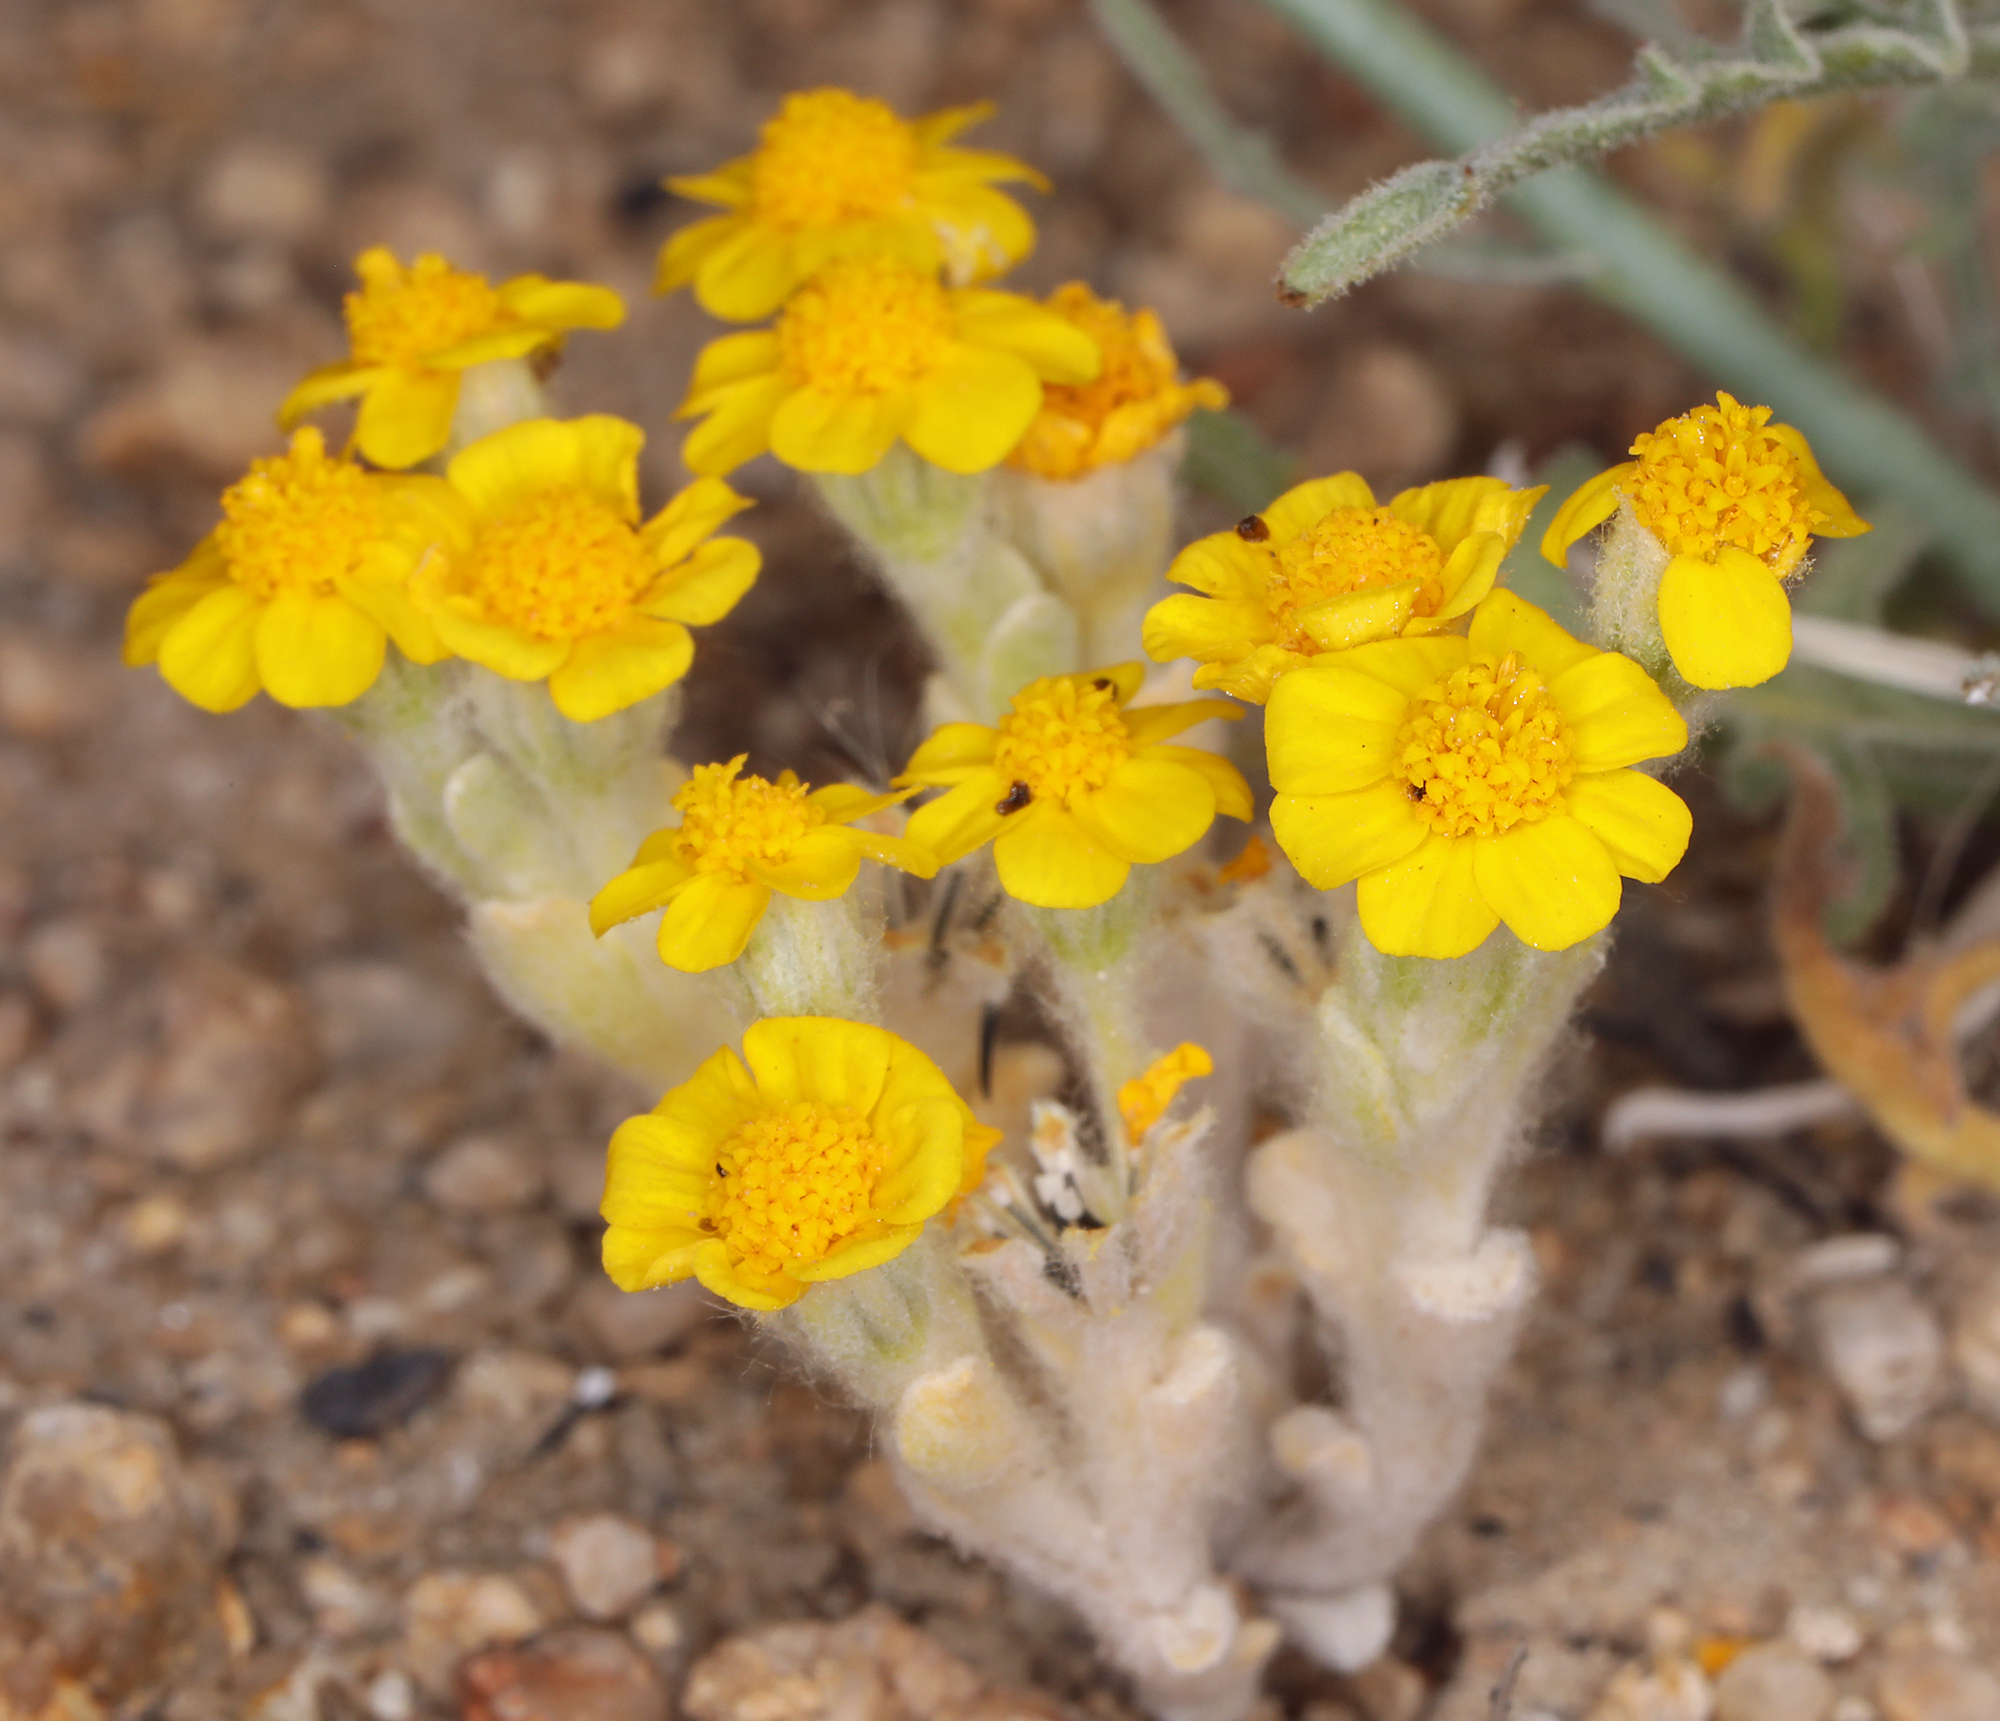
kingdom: Plantae
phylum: Tracheophyta
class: Magnoliopsida
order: Asterales
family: Asteraceae
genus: Eriophyllum
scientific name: Eriophyllum wallacei
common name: Wallace's woolly daisy
